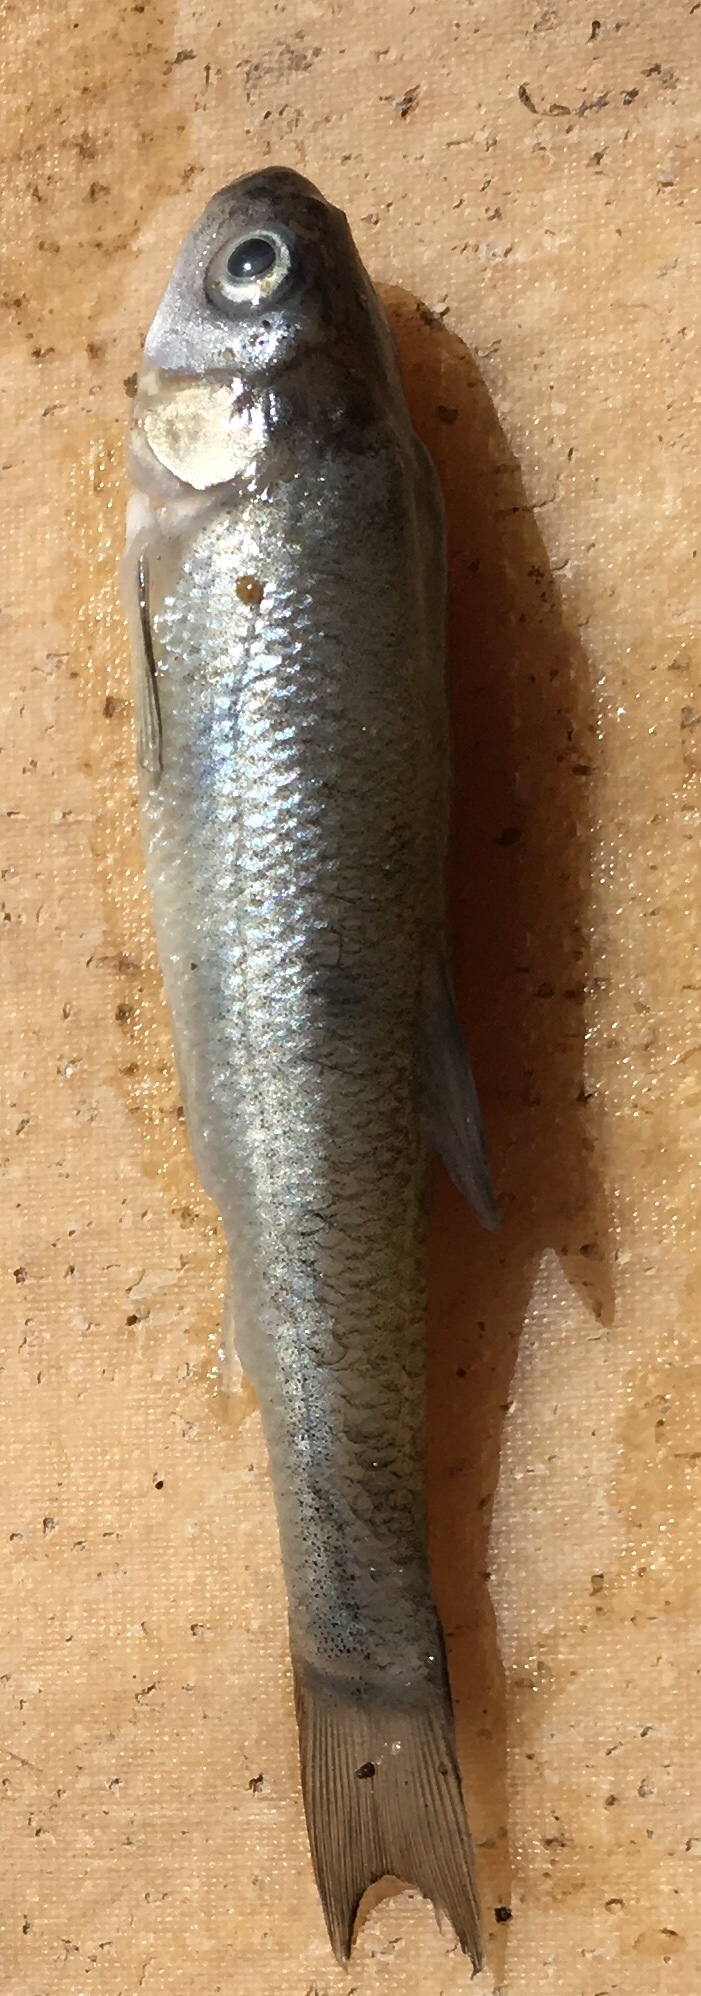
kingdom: Animalia
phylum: Chordata
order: Cypriniformes
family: Cyprinidae
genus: Pimephales
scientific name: Pimephales promelas
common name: Fathead minnow
